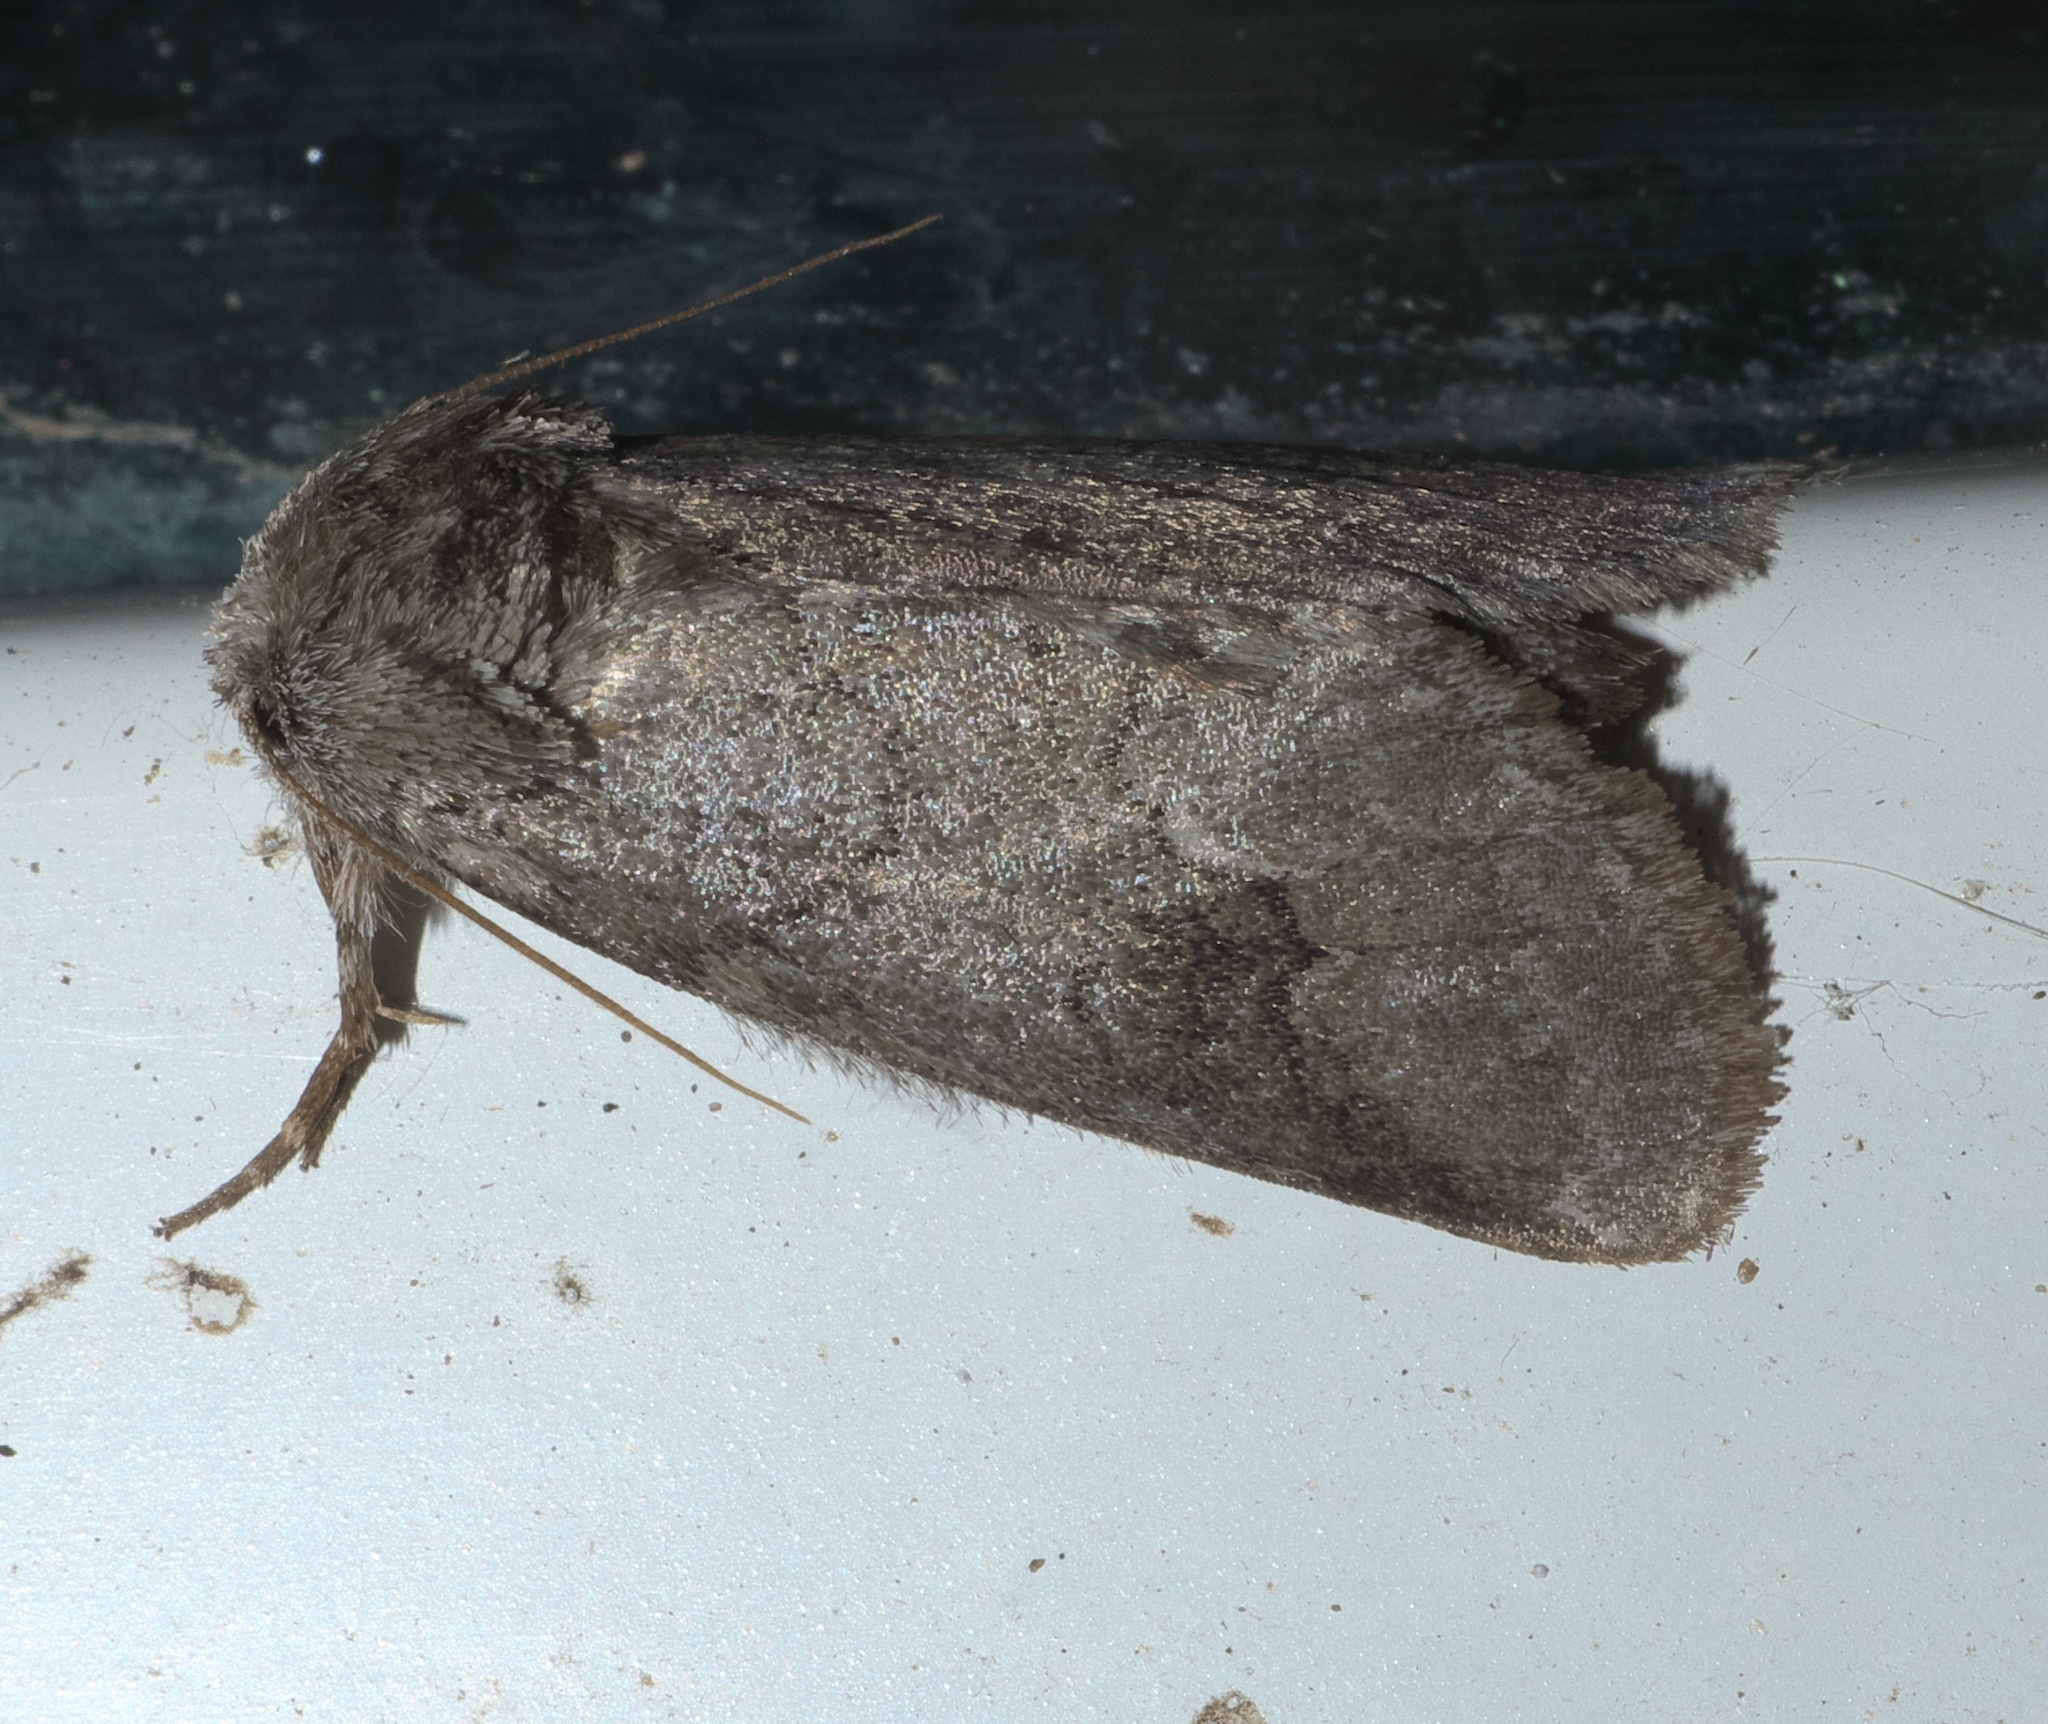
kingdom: Animalia
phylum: Arthropoda
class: Insecta
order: Lepidoptera
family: Notodontidae
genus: Lochmaeus
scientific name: Lochmaeus bilineata
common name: Double-lined prominent
